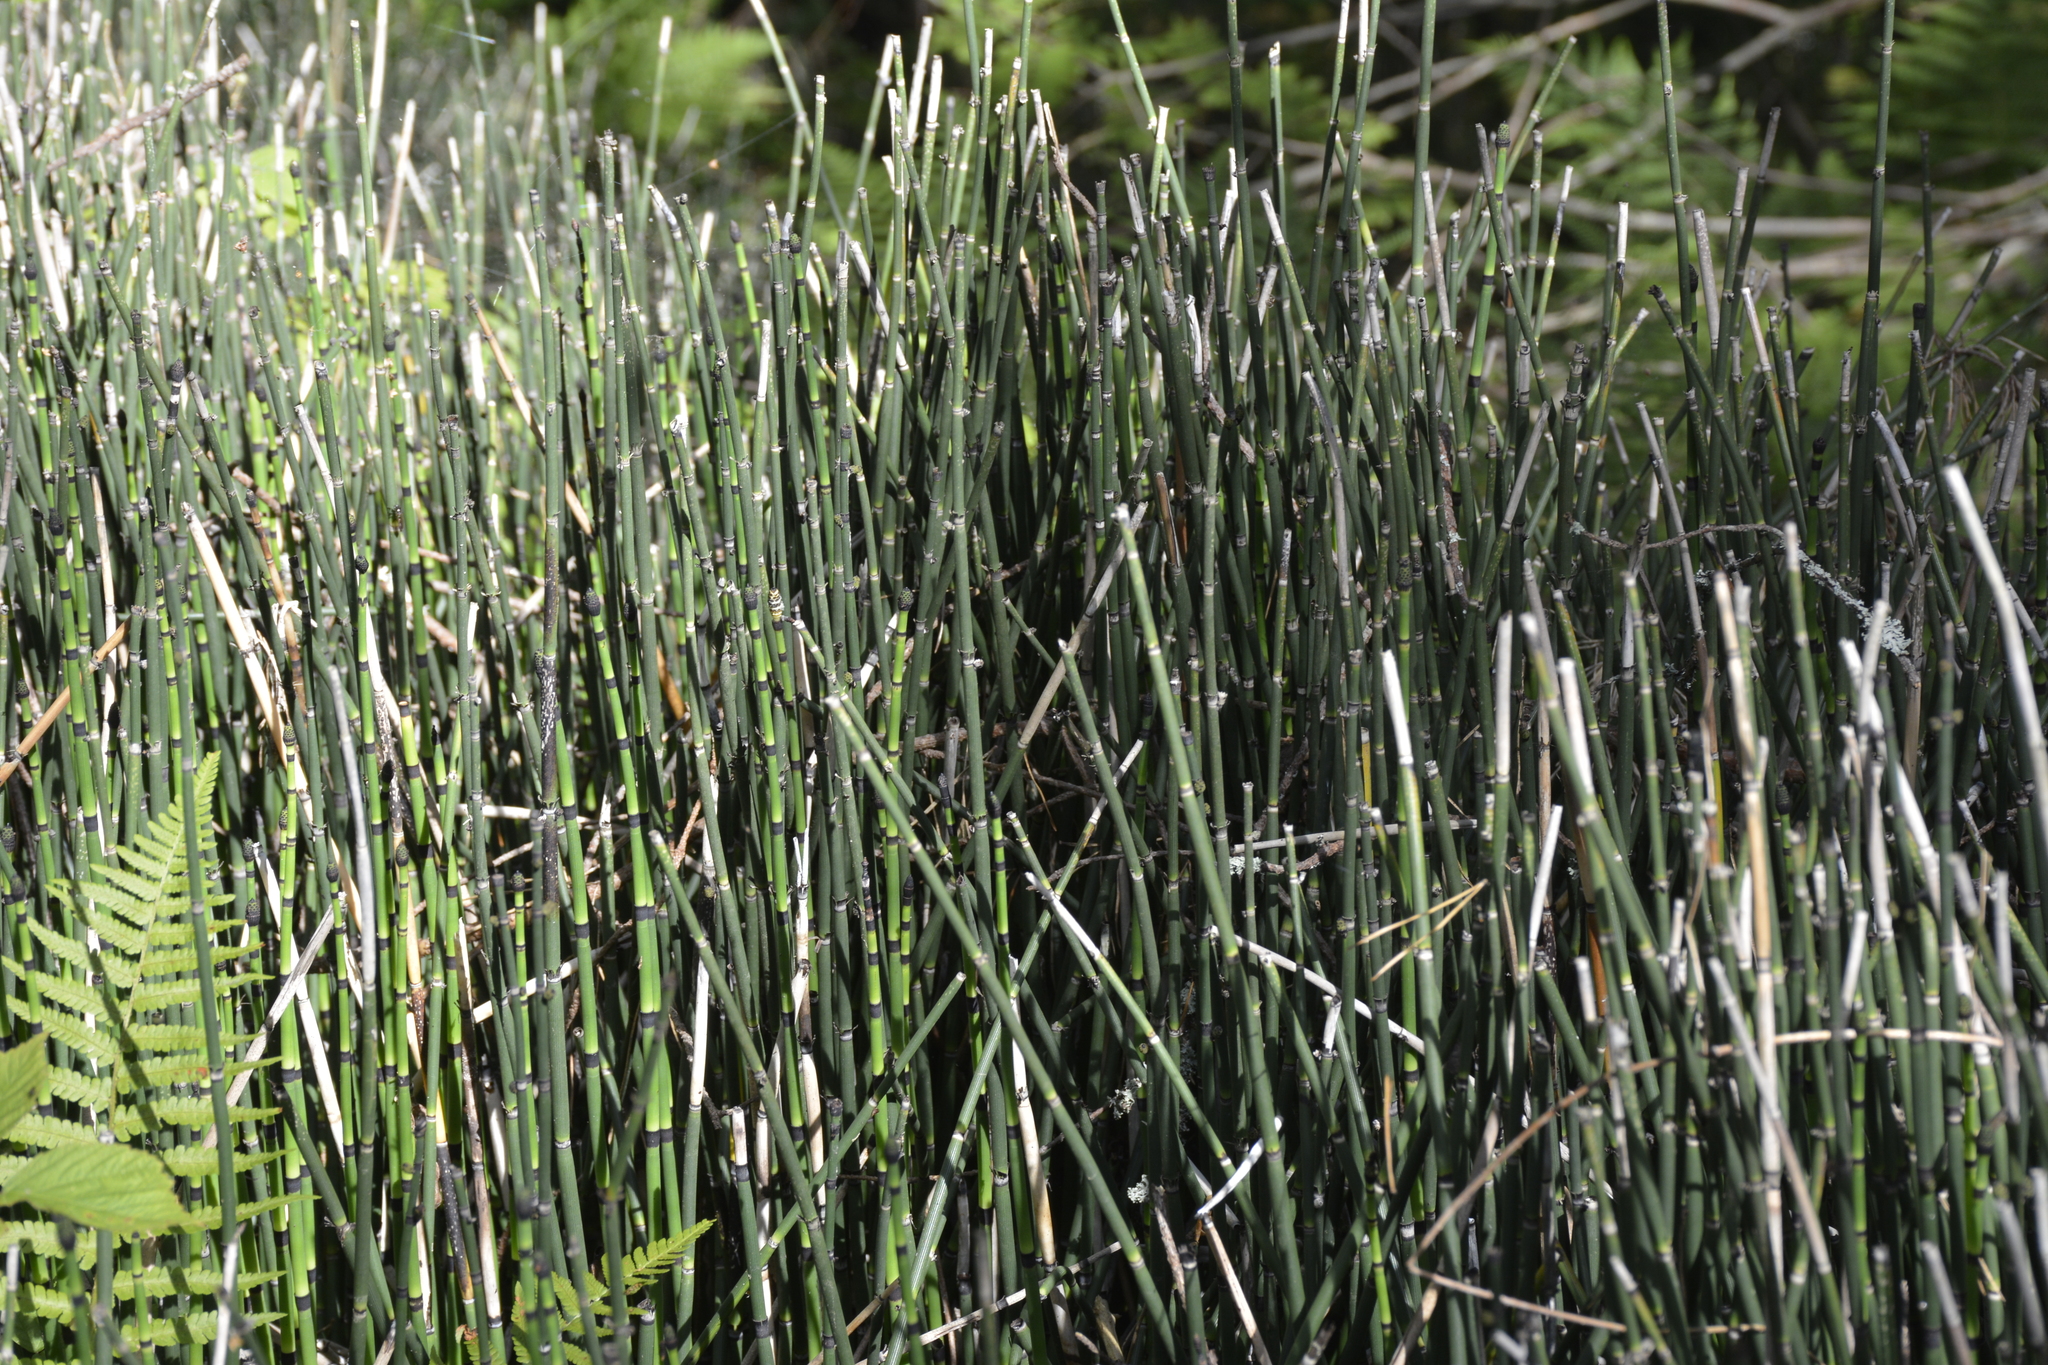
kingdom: Plantae
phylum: Tracheophyta
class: Polypodiopsida
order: Equisetales
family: Equisetaceae
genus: Equisetum
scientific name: Equisetum hyemale
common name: Rough horsetail
